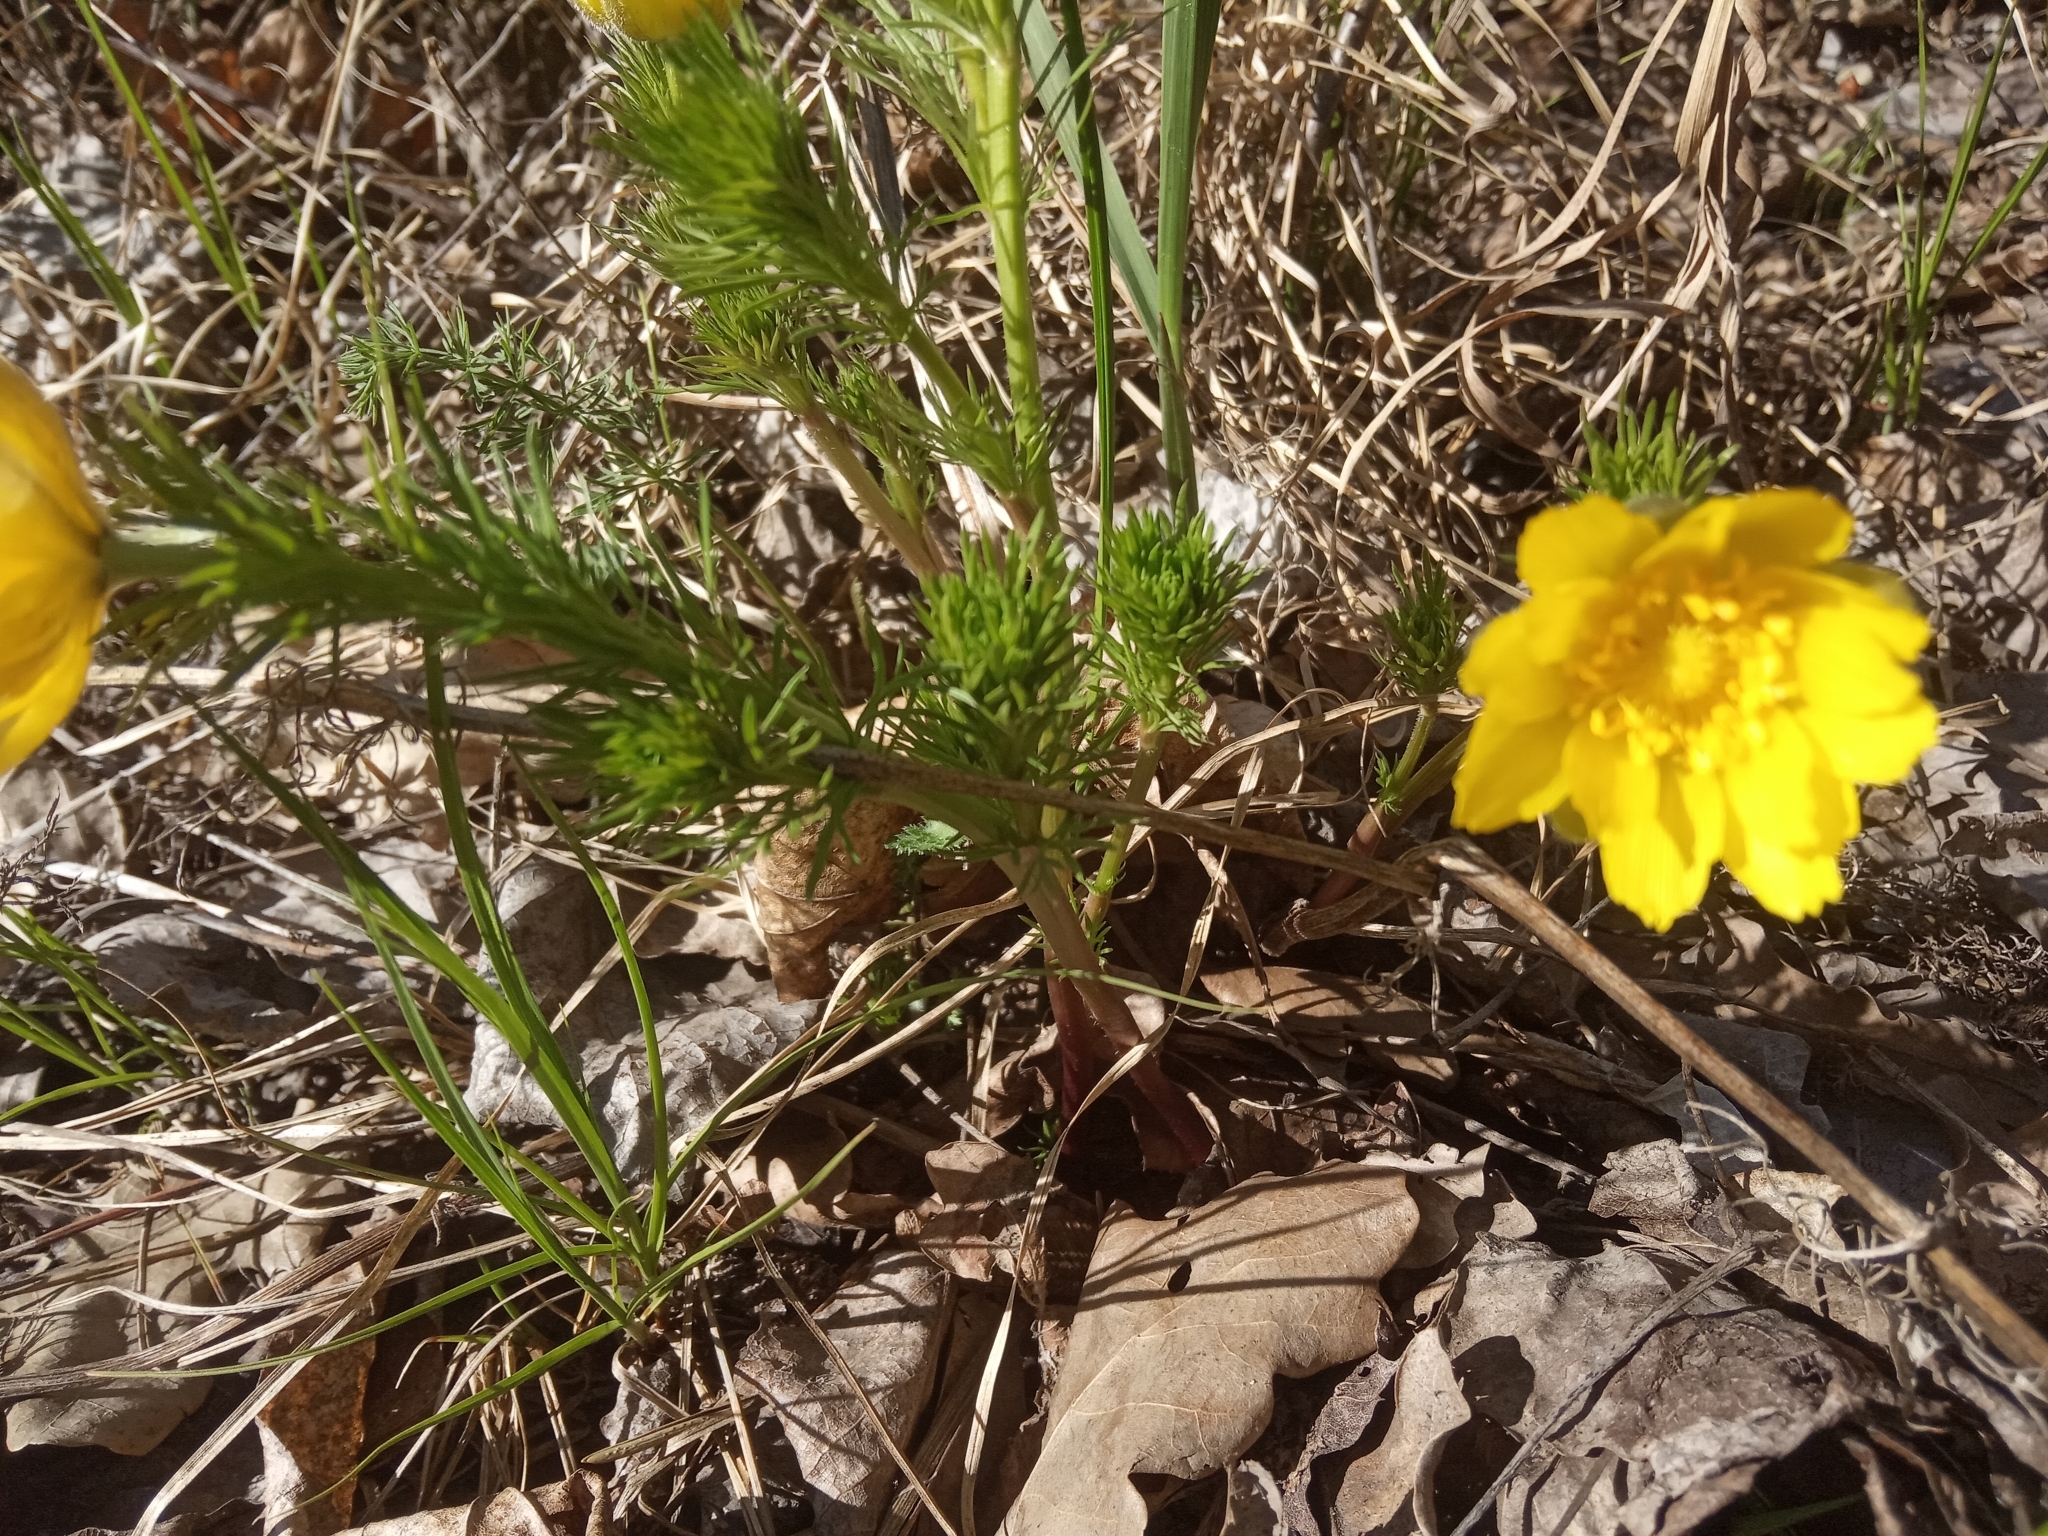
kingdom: Plantae
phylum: Tracheophyta
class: Magnoliopsida
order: Ranunculales
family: Ranunculaceae
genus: Adonis
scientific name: Adonis vernalis
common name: Yellow pheasants-eye
